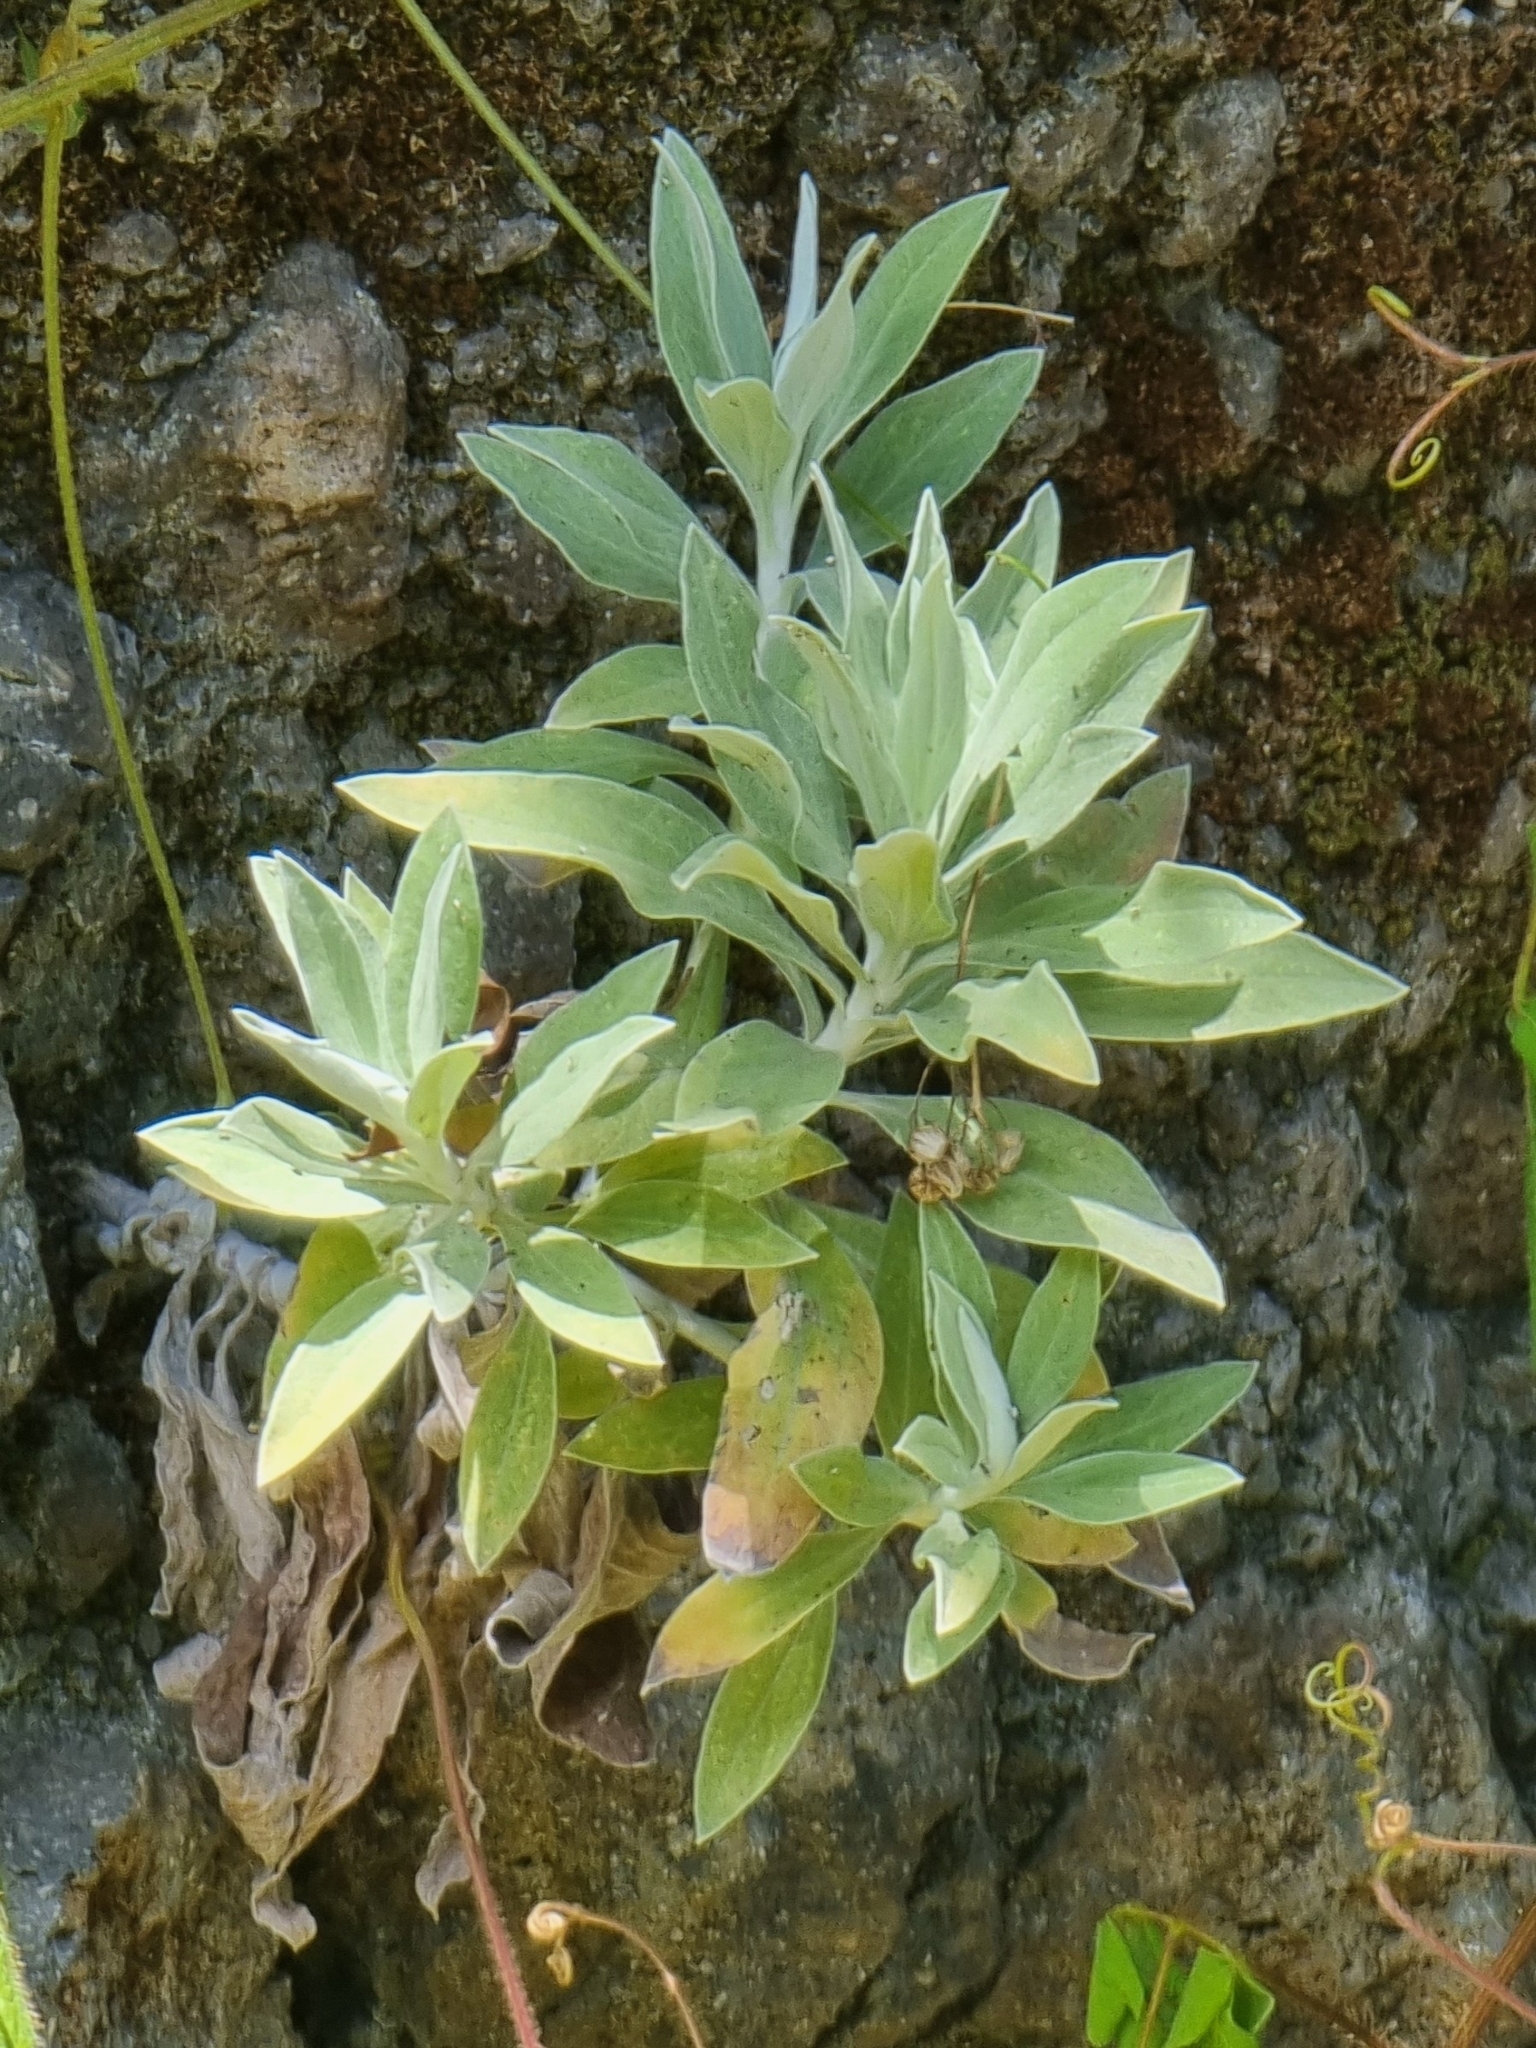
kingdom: Plantae
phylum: Tracheophyta
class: Magnoliopsida
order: Asterales
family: Asteraceae
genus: Helichrysum
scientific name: Helichrysum melaleucum
